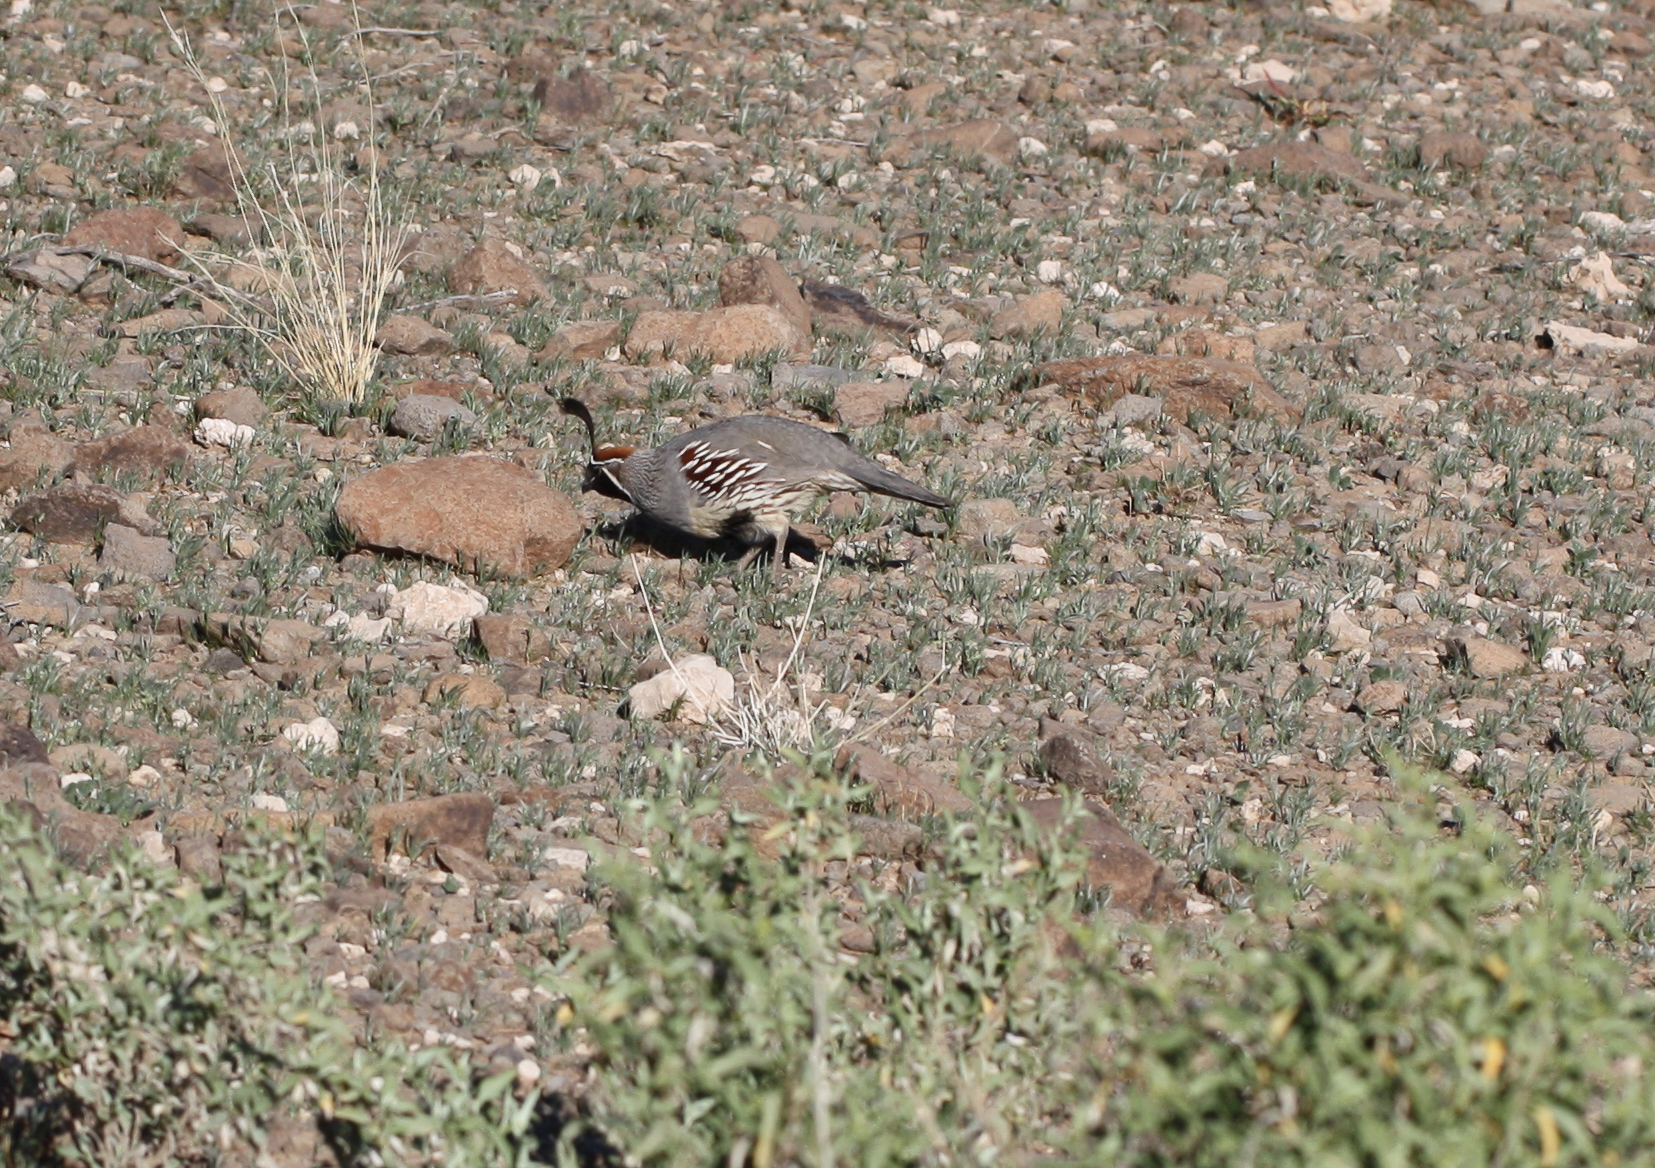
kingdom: Animalia
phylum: Chordata
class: Aves
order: Galliformes
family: Odontophoridae
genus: Callipepla
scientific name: Callipepla gambelii
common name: Gambel's quail
